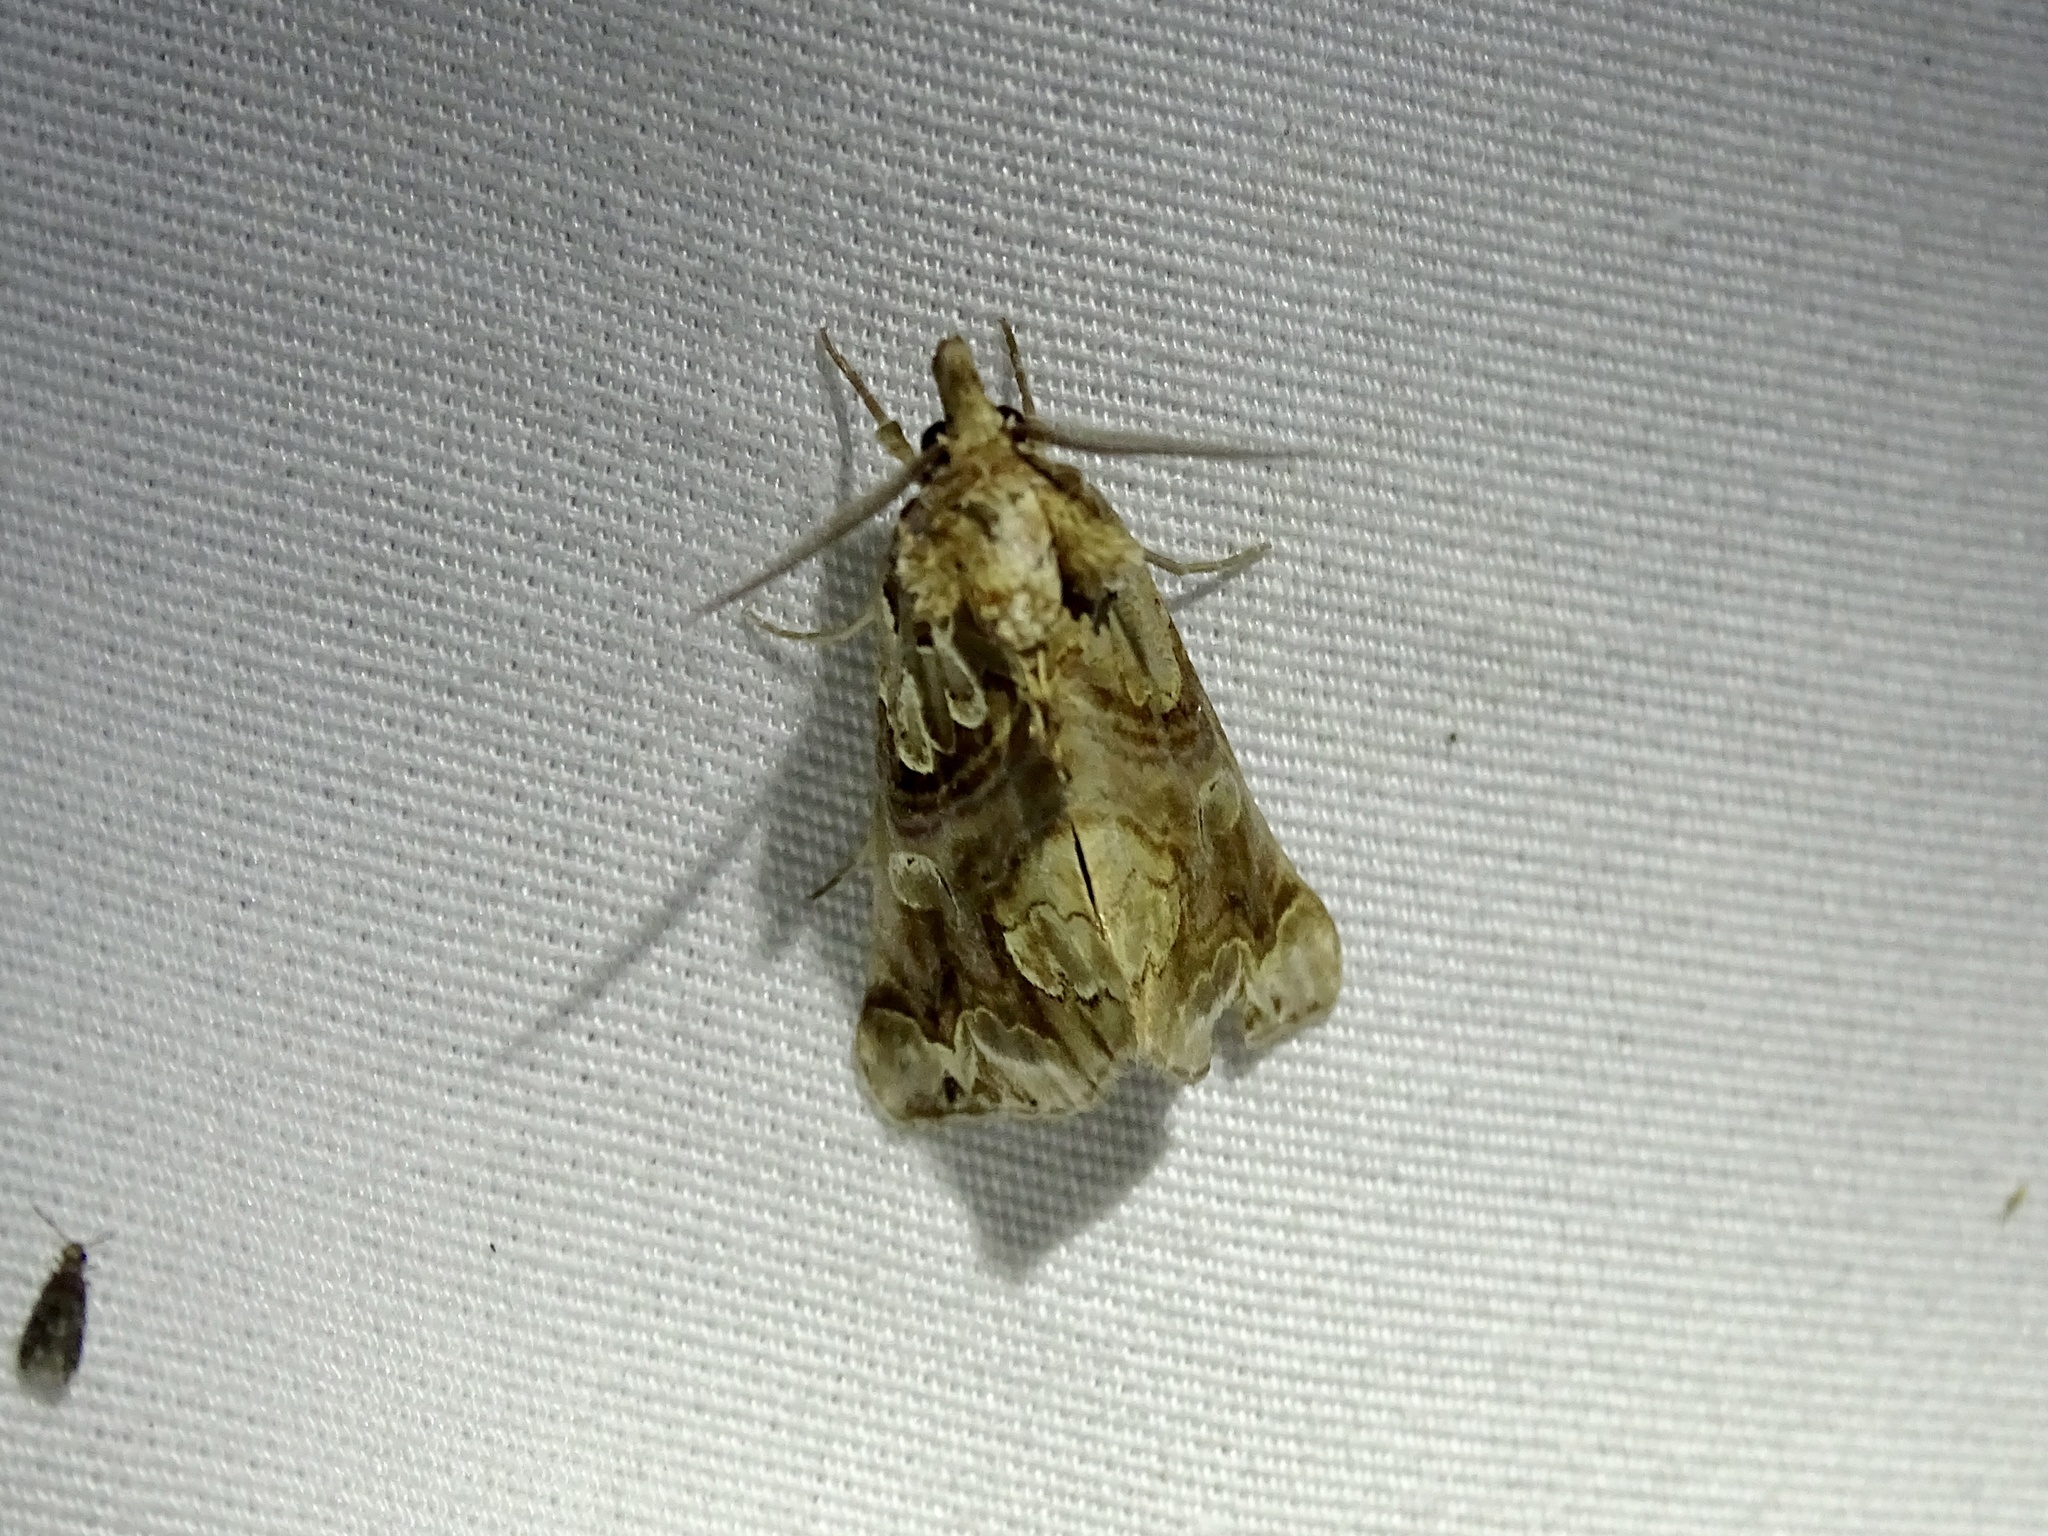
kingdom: Animalia
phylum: Arthropoda
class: Insecta
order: Lepidoptera
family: Erebidae
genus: Plusiodonta
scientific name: Plusiodonta compressipalpis
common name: Moonseed moth
